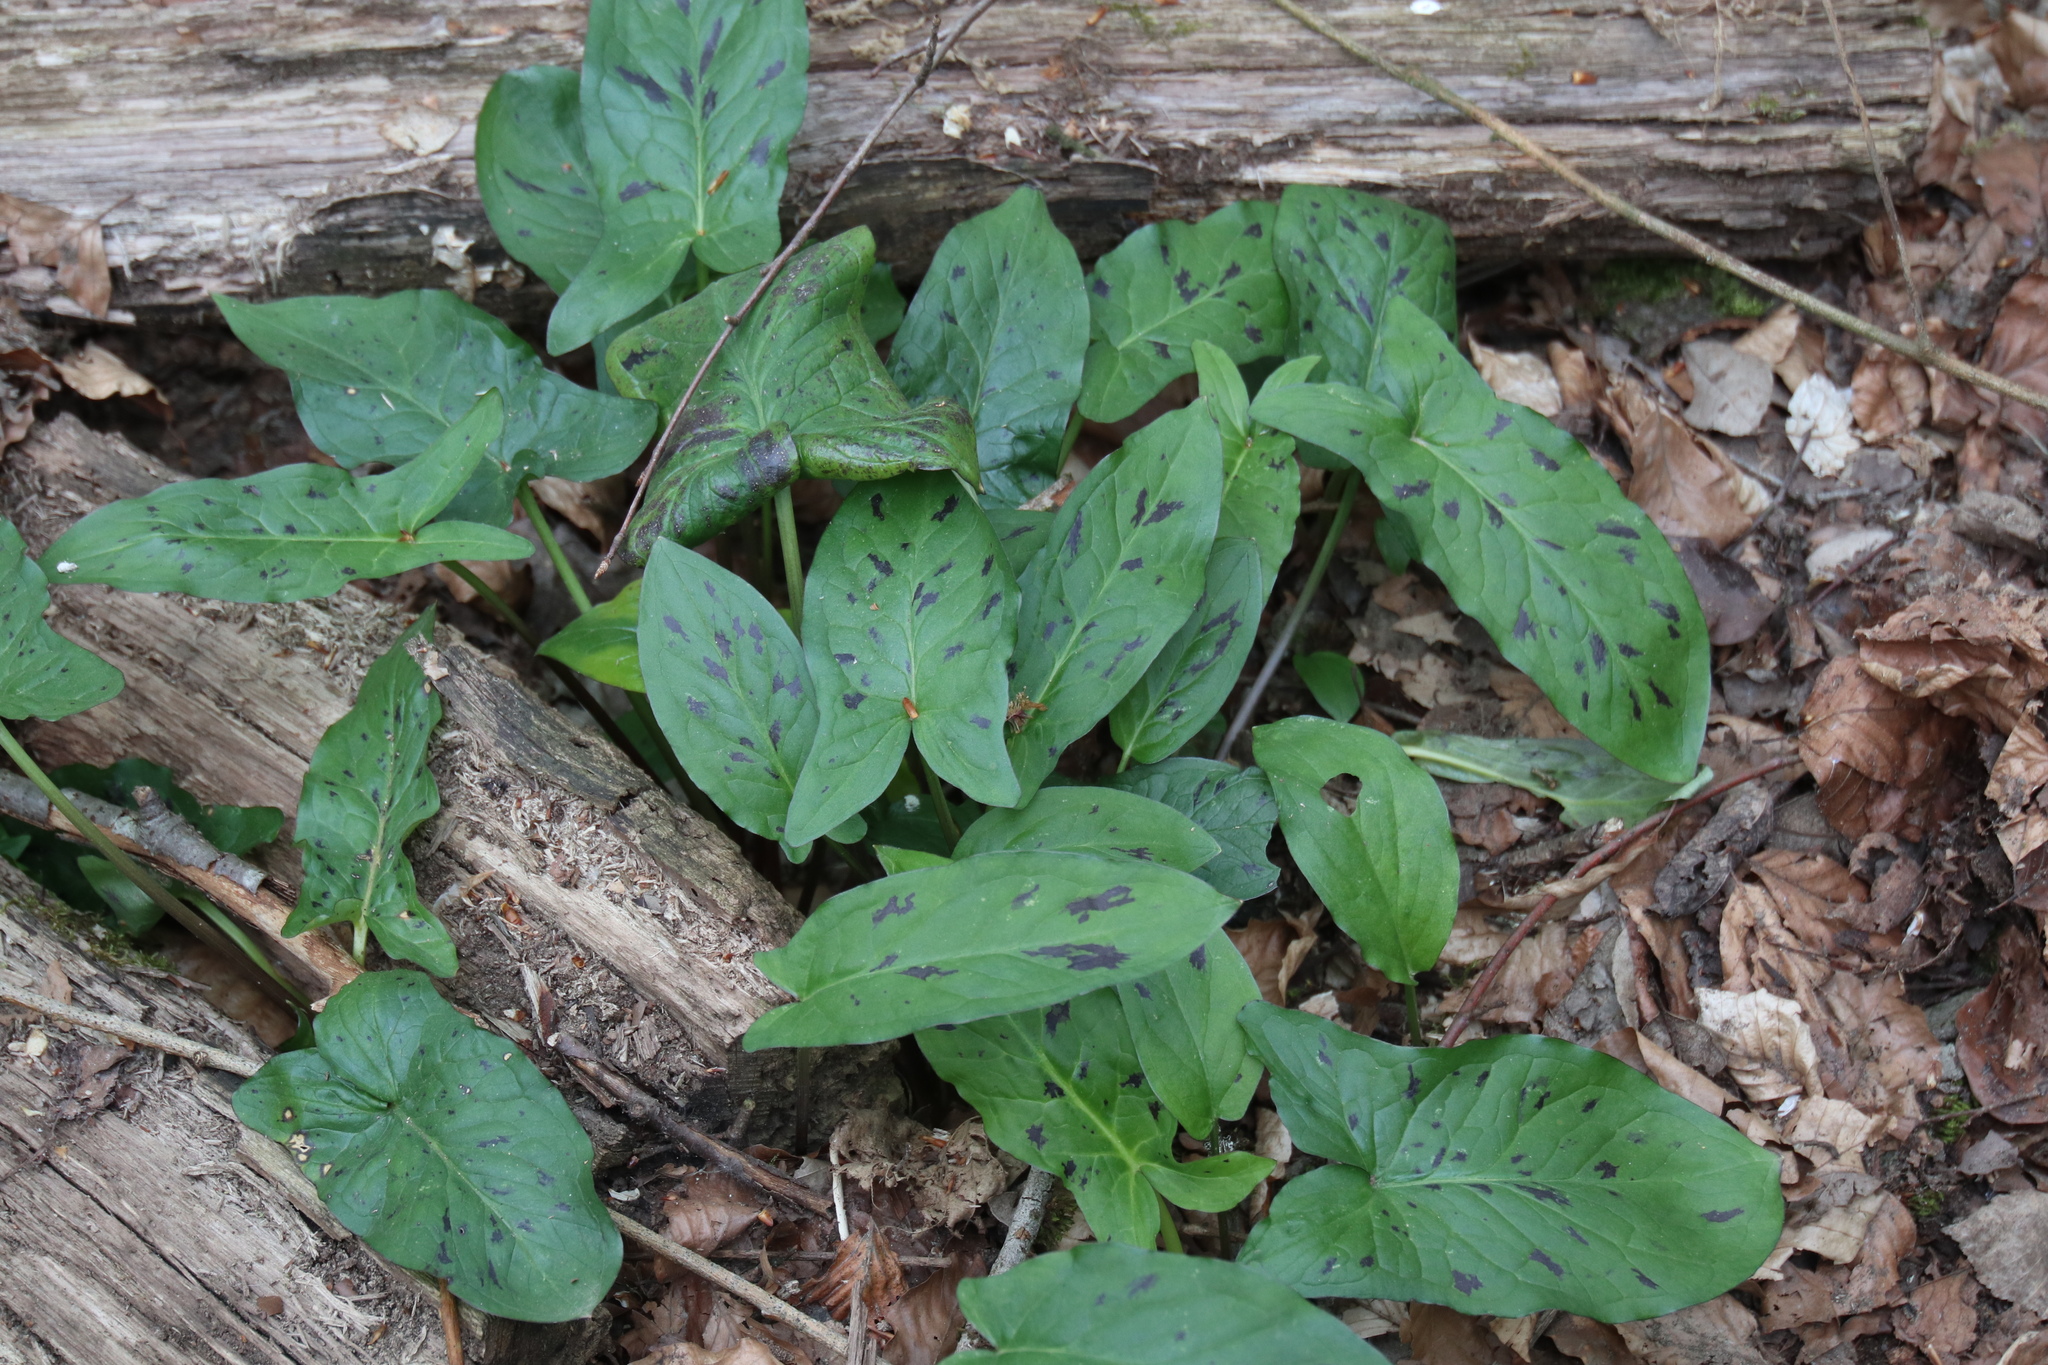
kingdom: Plantae
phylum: Tracheophyta
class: Liliopsida
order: Alismatales
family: Araceae
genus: Arum
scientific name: Arum maculatum
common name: Lords-and-ladies
